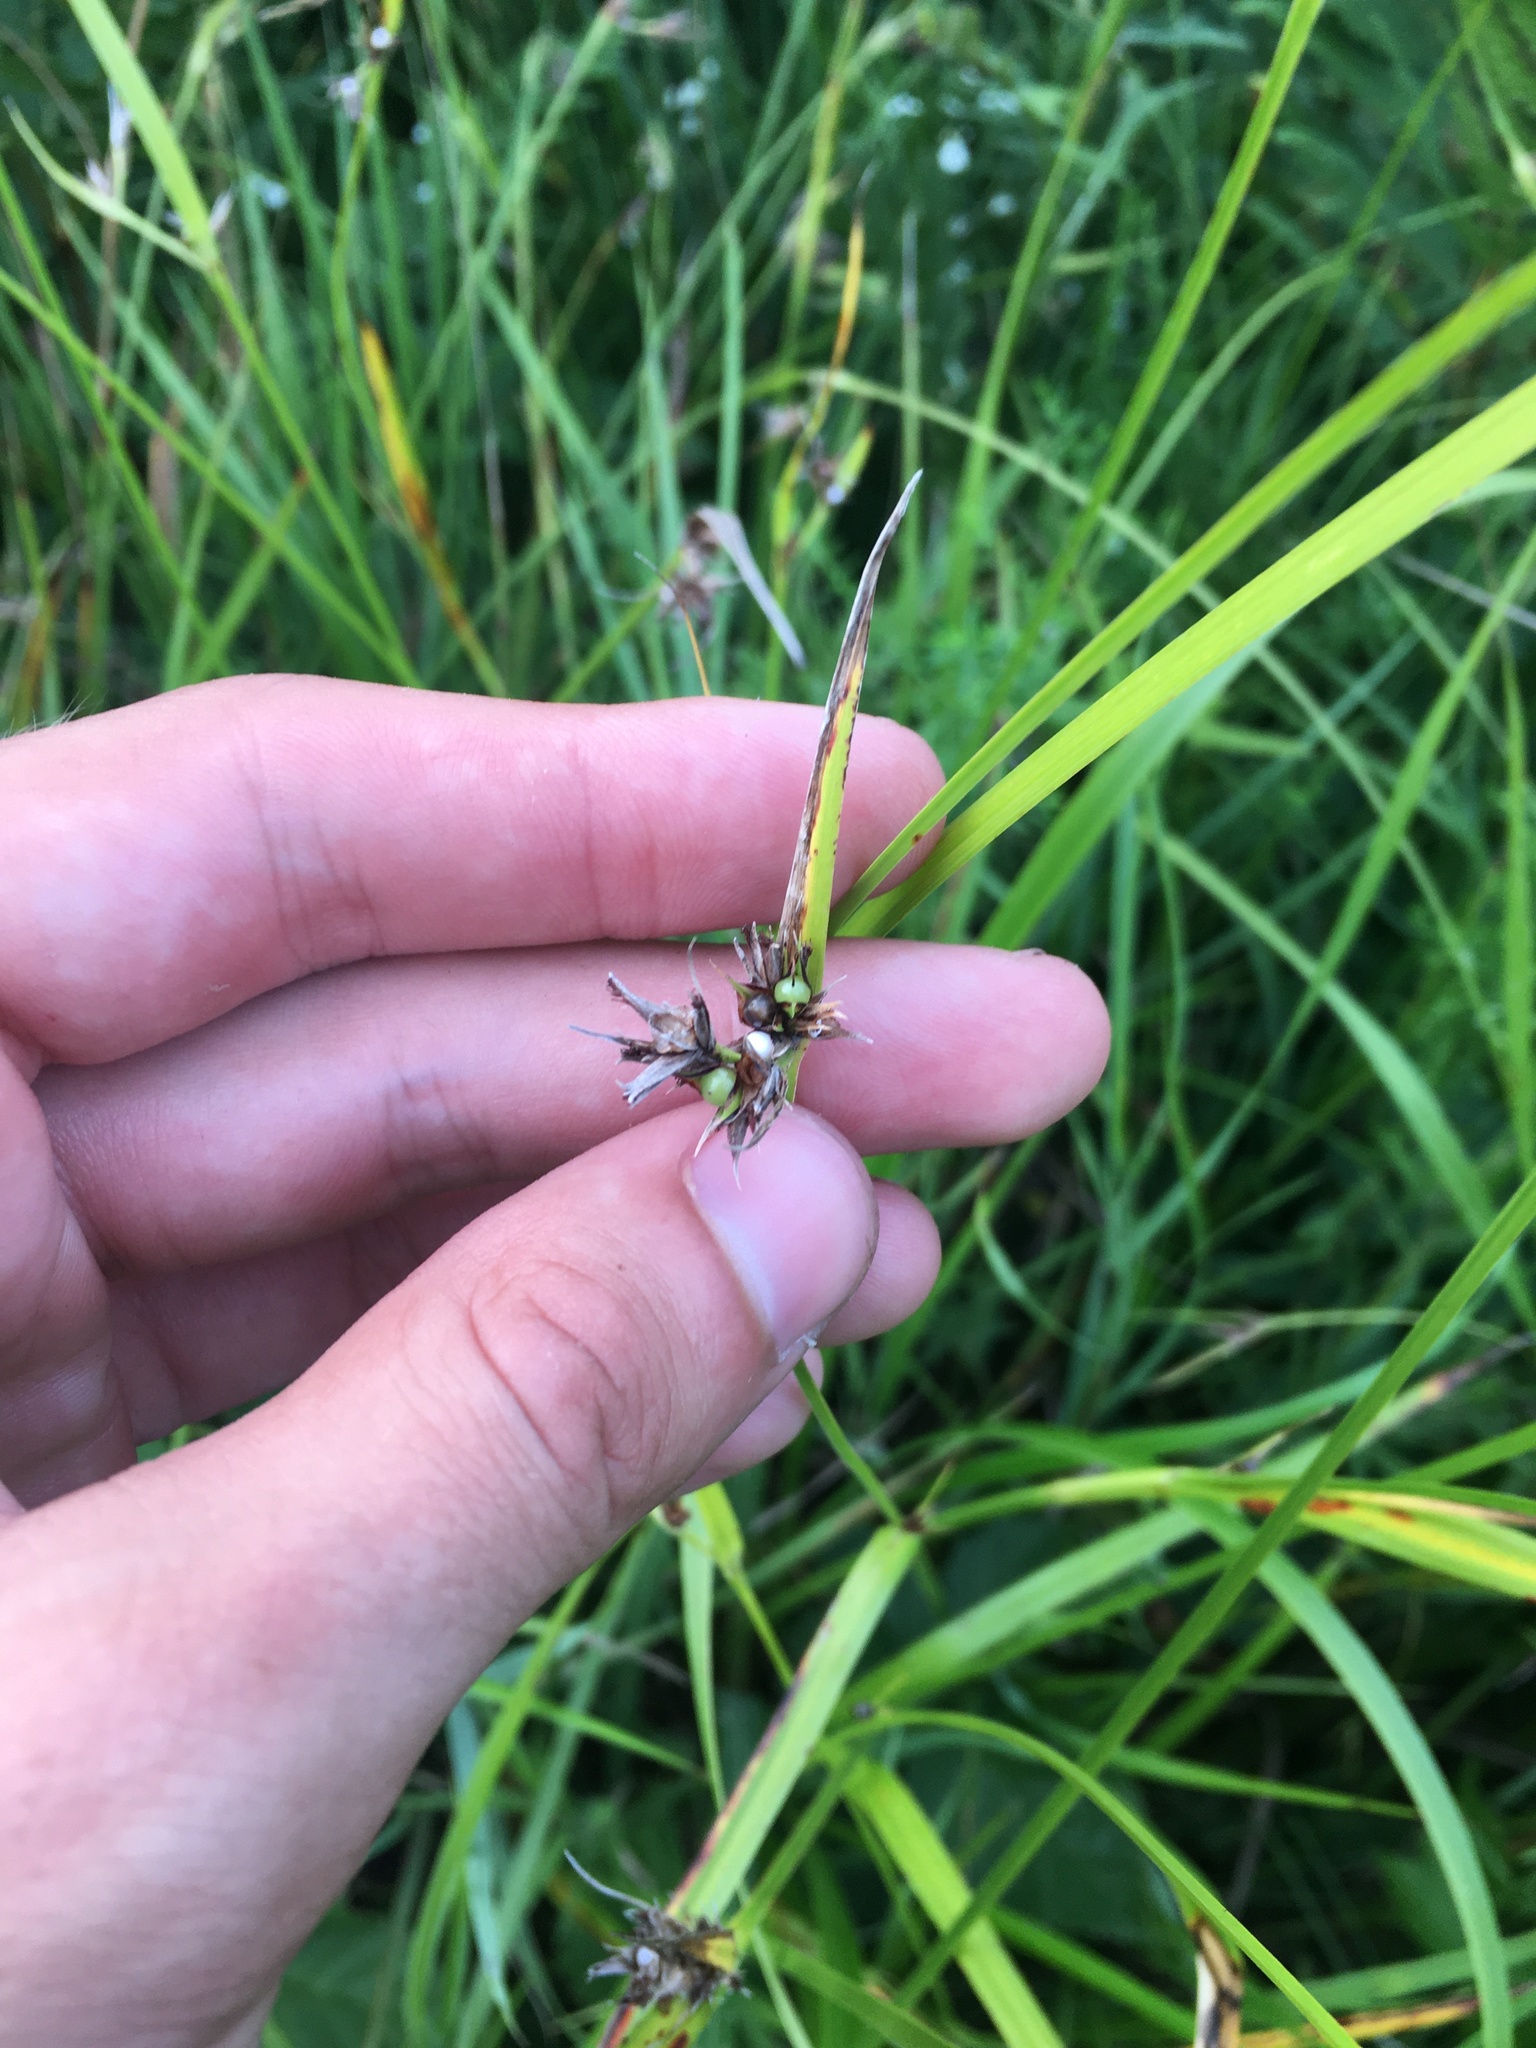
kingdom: Plantae
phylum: Tracheophyta
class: Liliopsida
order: Poales
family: Cyperaceae
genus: Scleria
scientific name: Scleria triglomerata
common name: Whip nutrush
